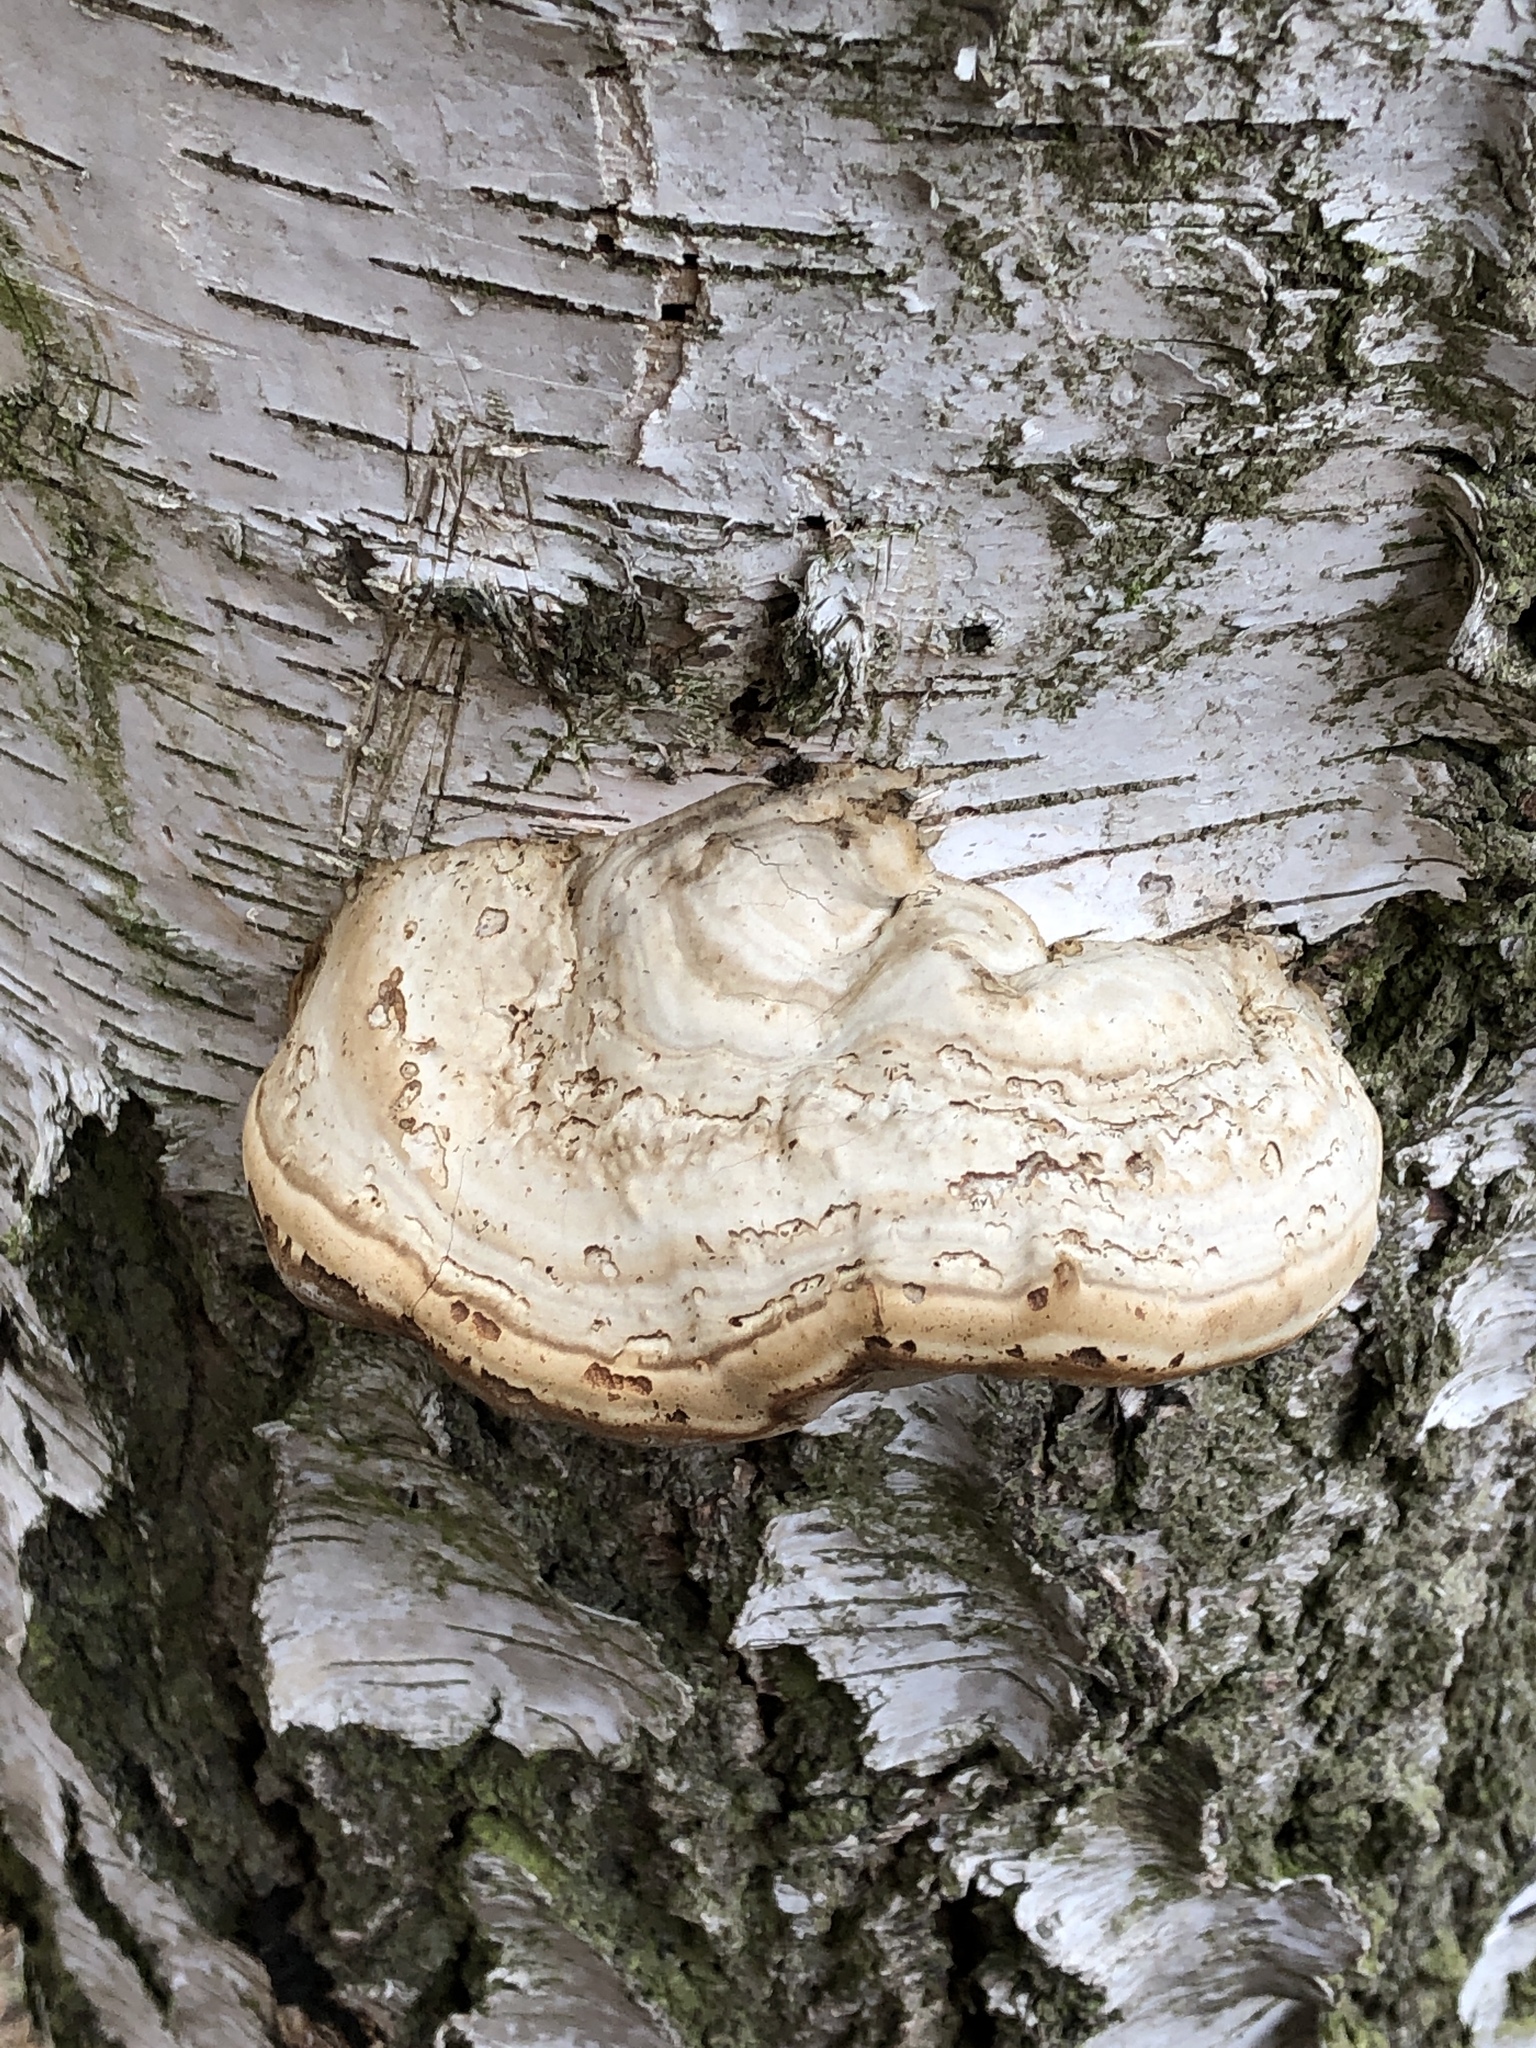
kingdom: Fungi
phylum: Basidiomycota
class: Agaricomycetes
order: Polyporales
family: Polyporaceae
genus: Fomes
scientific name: Fomes fomentarius
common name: Hoof fungus
